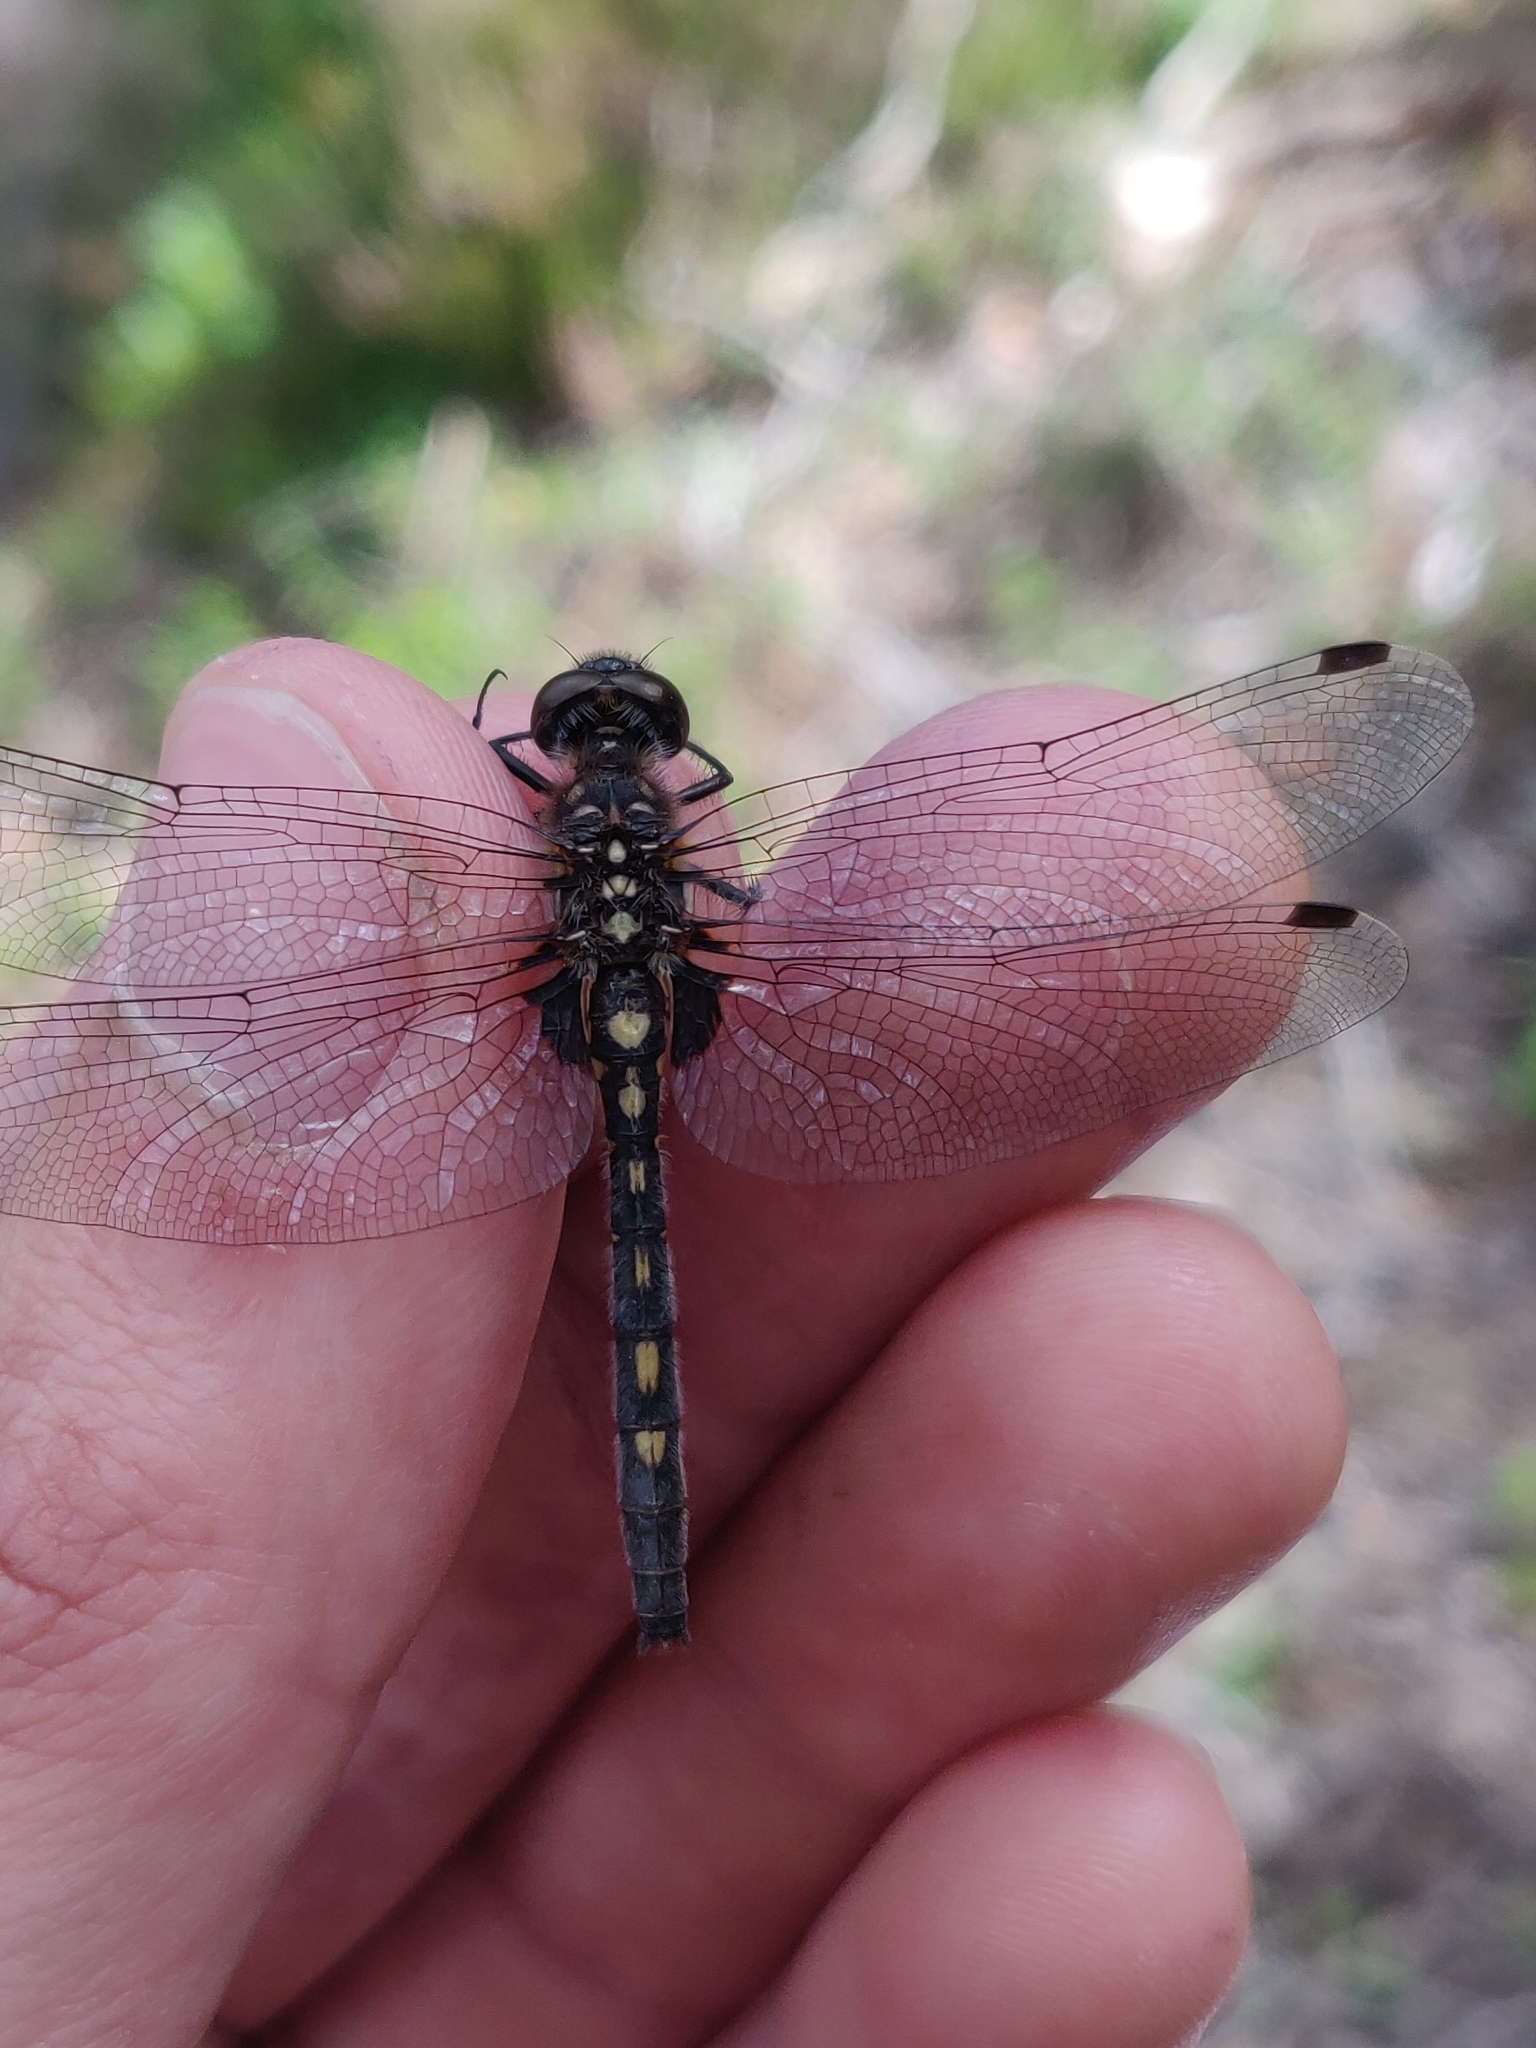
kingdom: Animalia
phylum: Arthropoda
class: Insecta
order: Odonata
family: Libellulidae
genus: Leucorrhinia
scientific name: Leucorrhinia dubia
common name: White-faced darter
